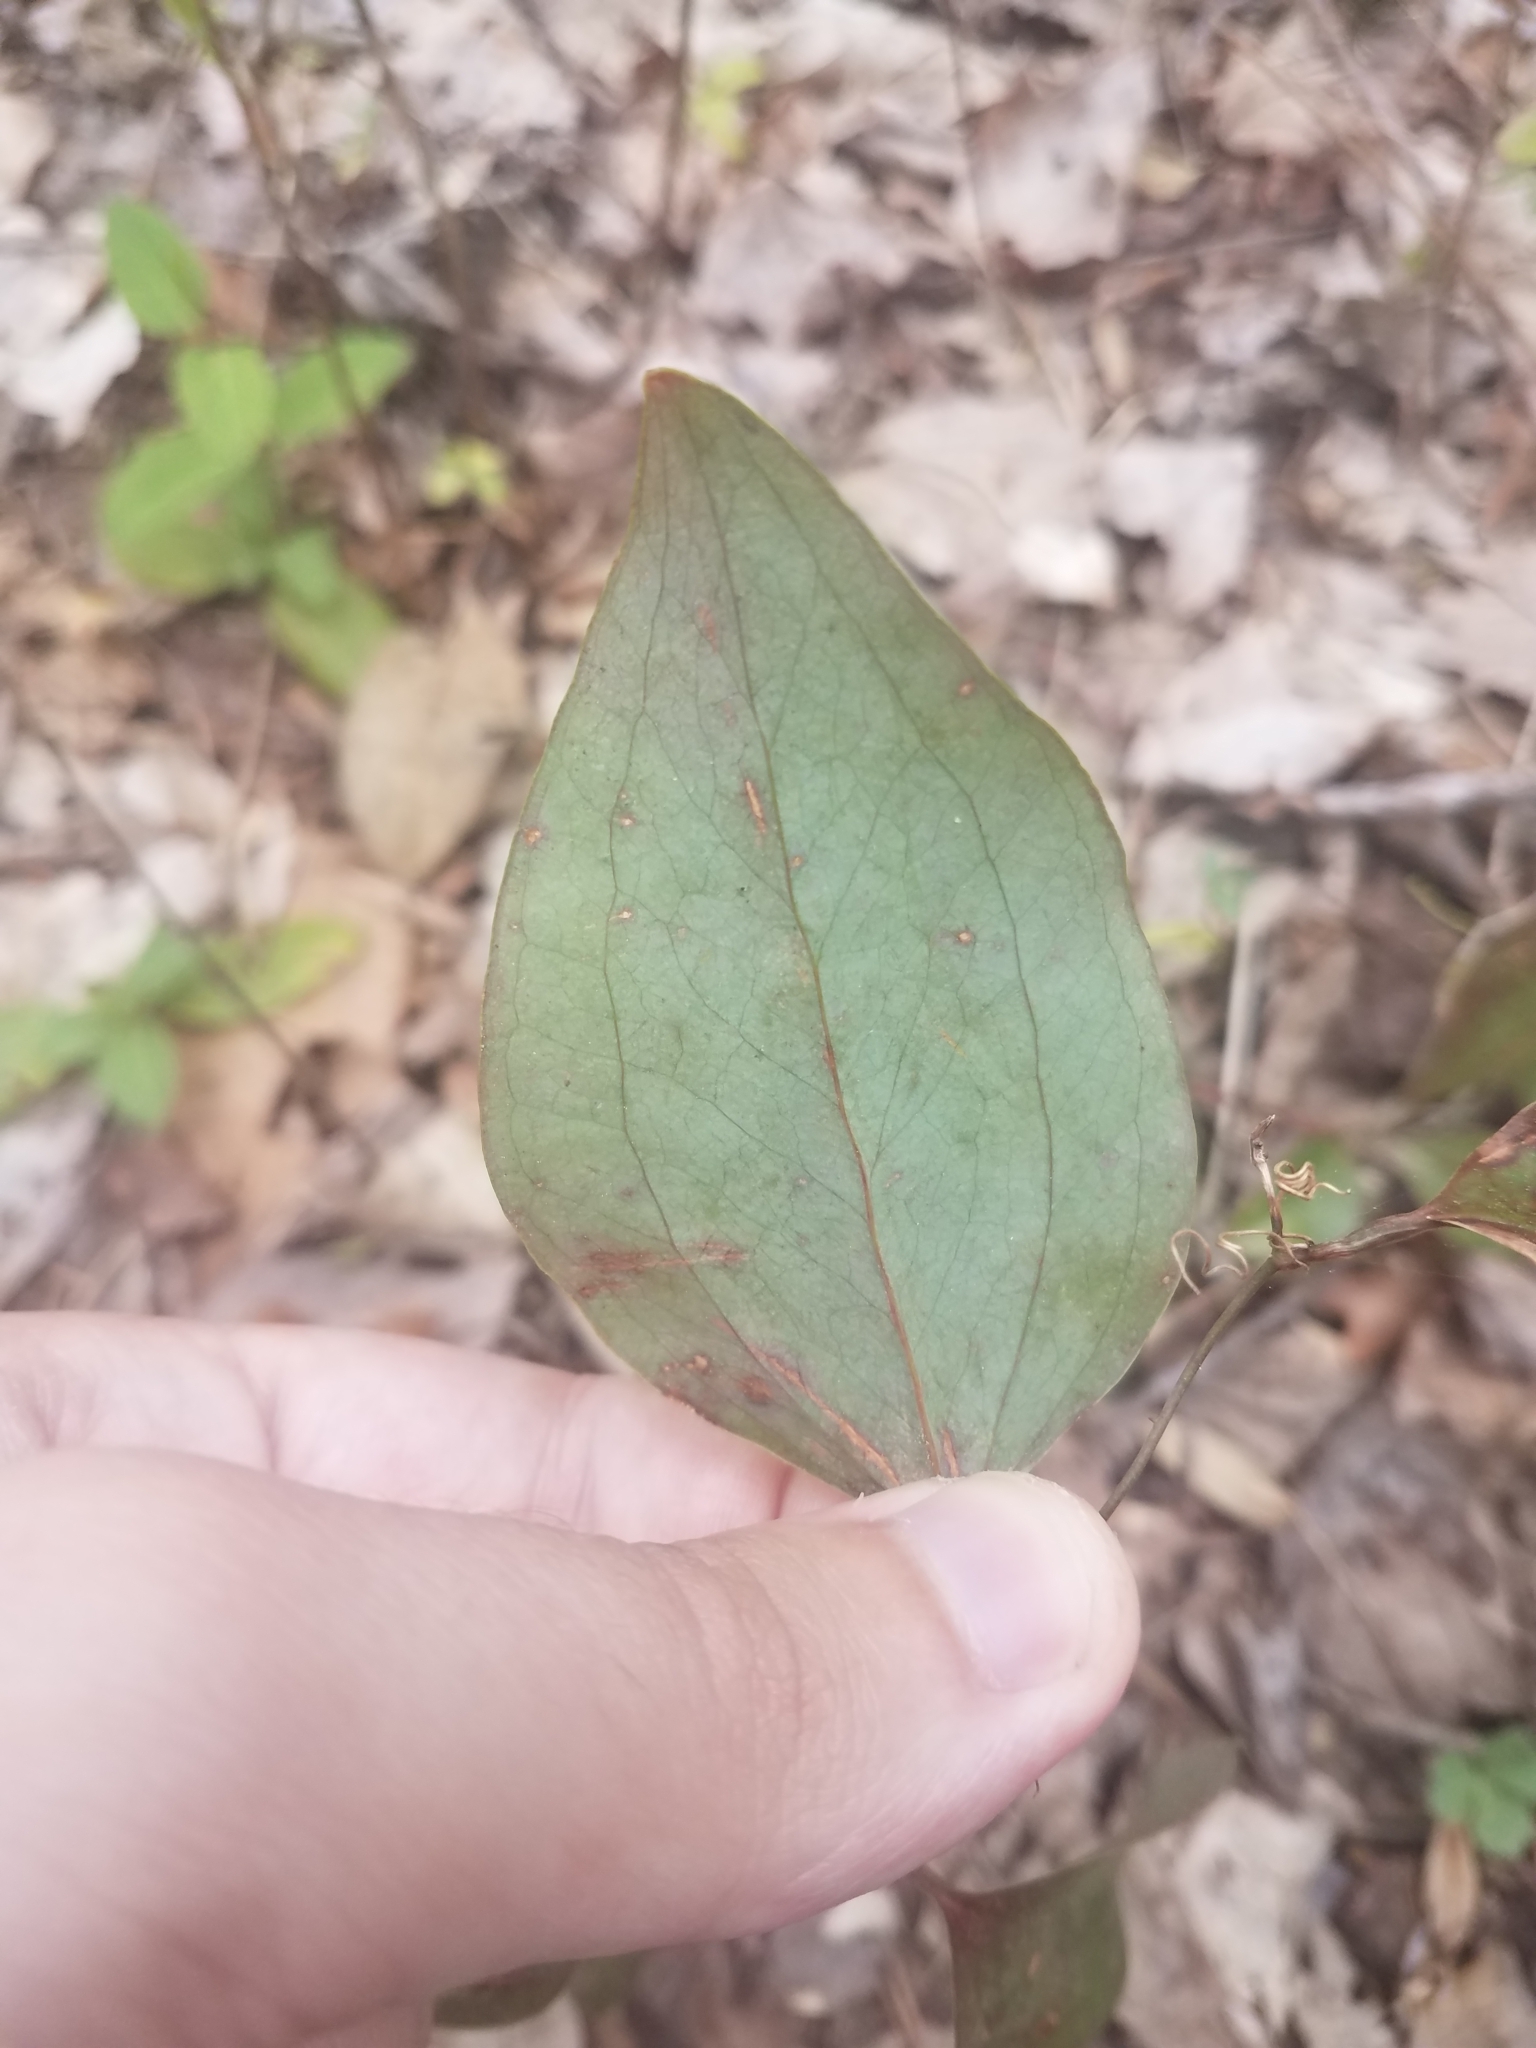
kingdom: Plantae
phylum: Tracheophyta
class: Liliopsida
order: Liliales
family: Smilacaceae
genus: Smilax
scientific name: Smilax glauca
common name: Cat greenbrier
